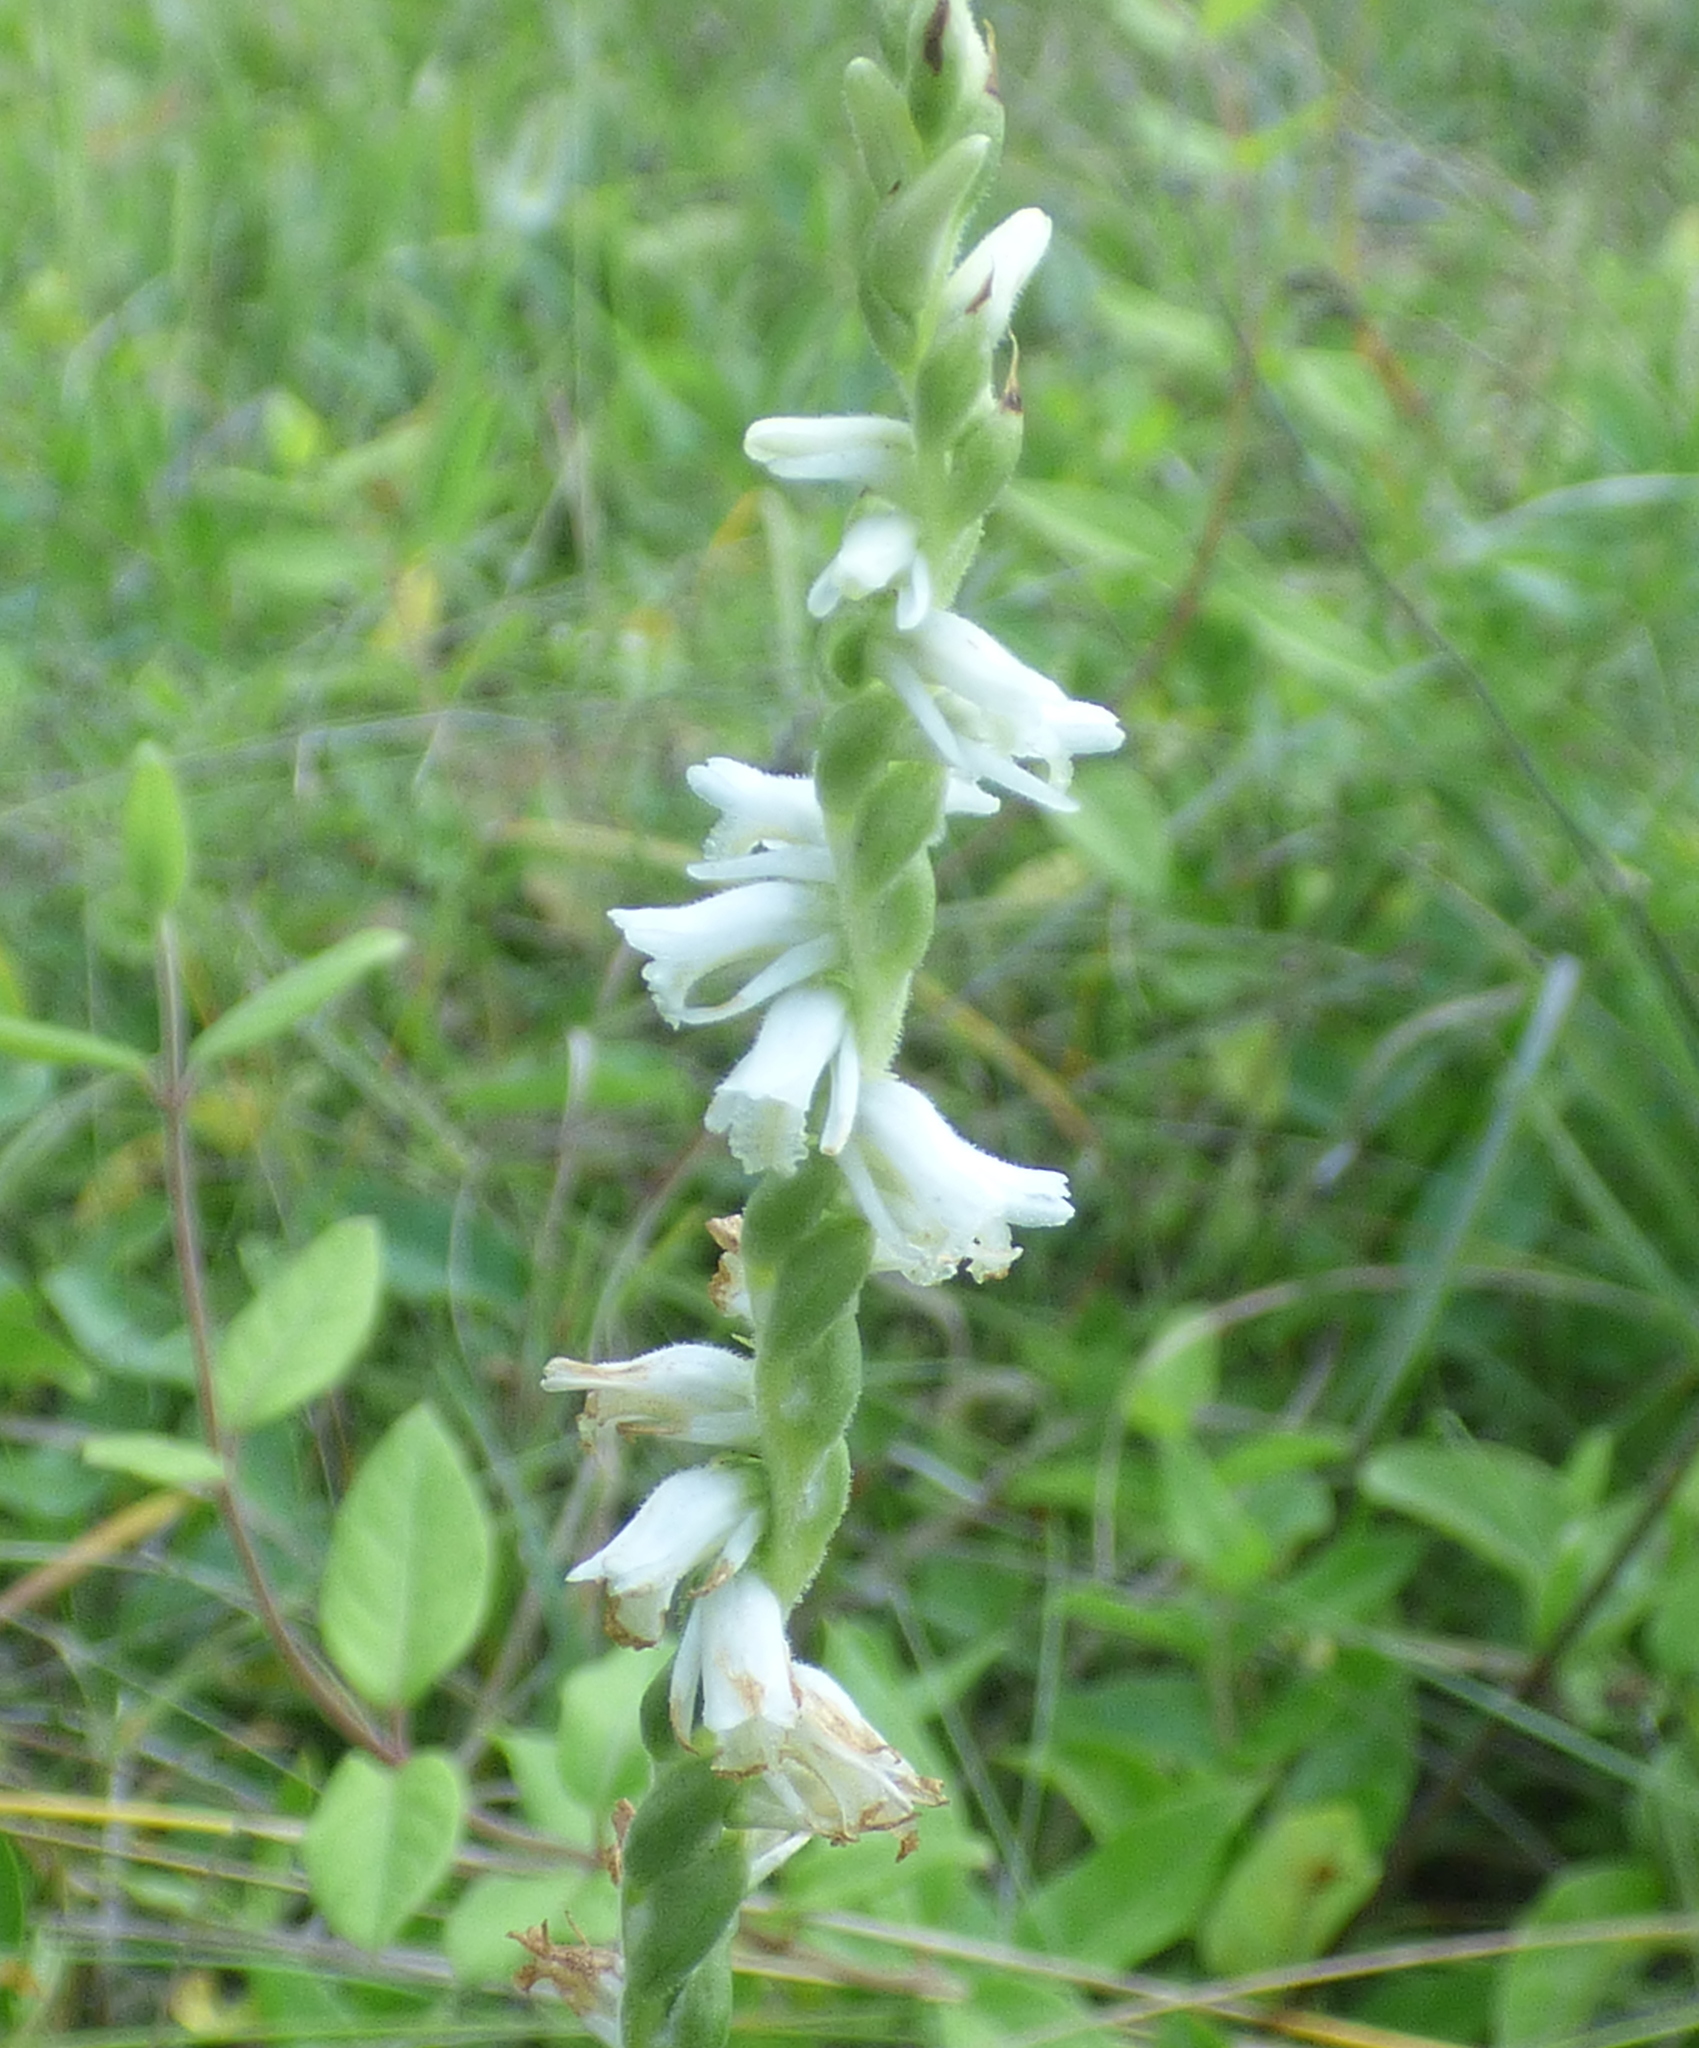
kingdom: Plantae
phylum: Tracheophyta
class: Liliopsida
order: Asparagales
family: Orchidaceae
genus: Spiranthes
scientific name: Spiranthes vernalis
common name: Spring ladies'-tresses
